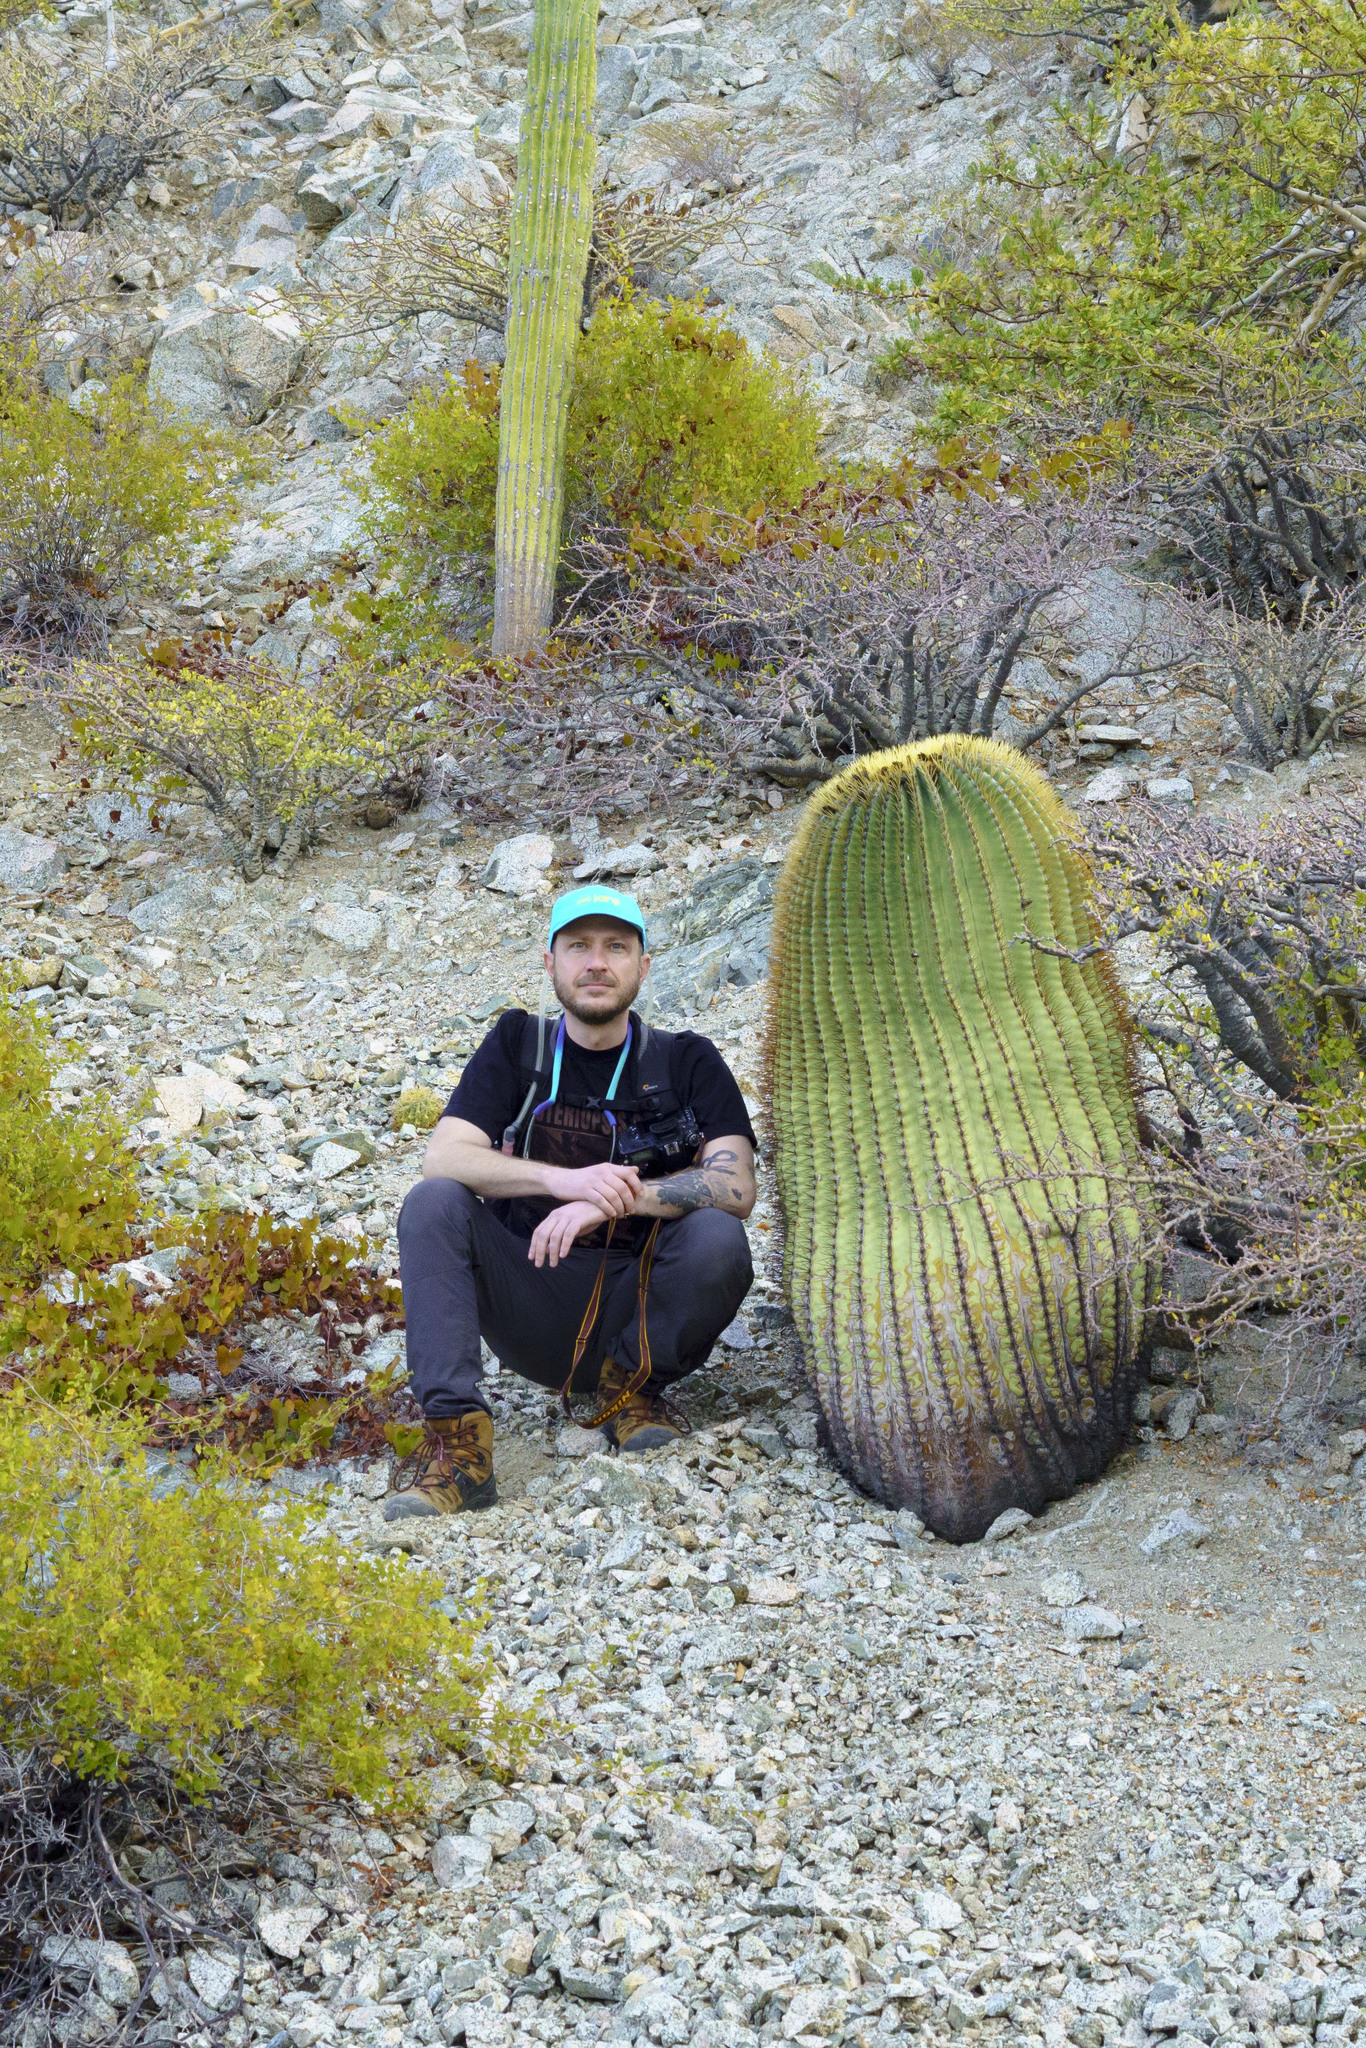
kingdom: Plantae
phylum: Tracheophyta
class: Magnoliopsida
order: Caryophyllales
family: Cactaceae
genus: Ferocactus
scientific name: Ferocactus diguetii
